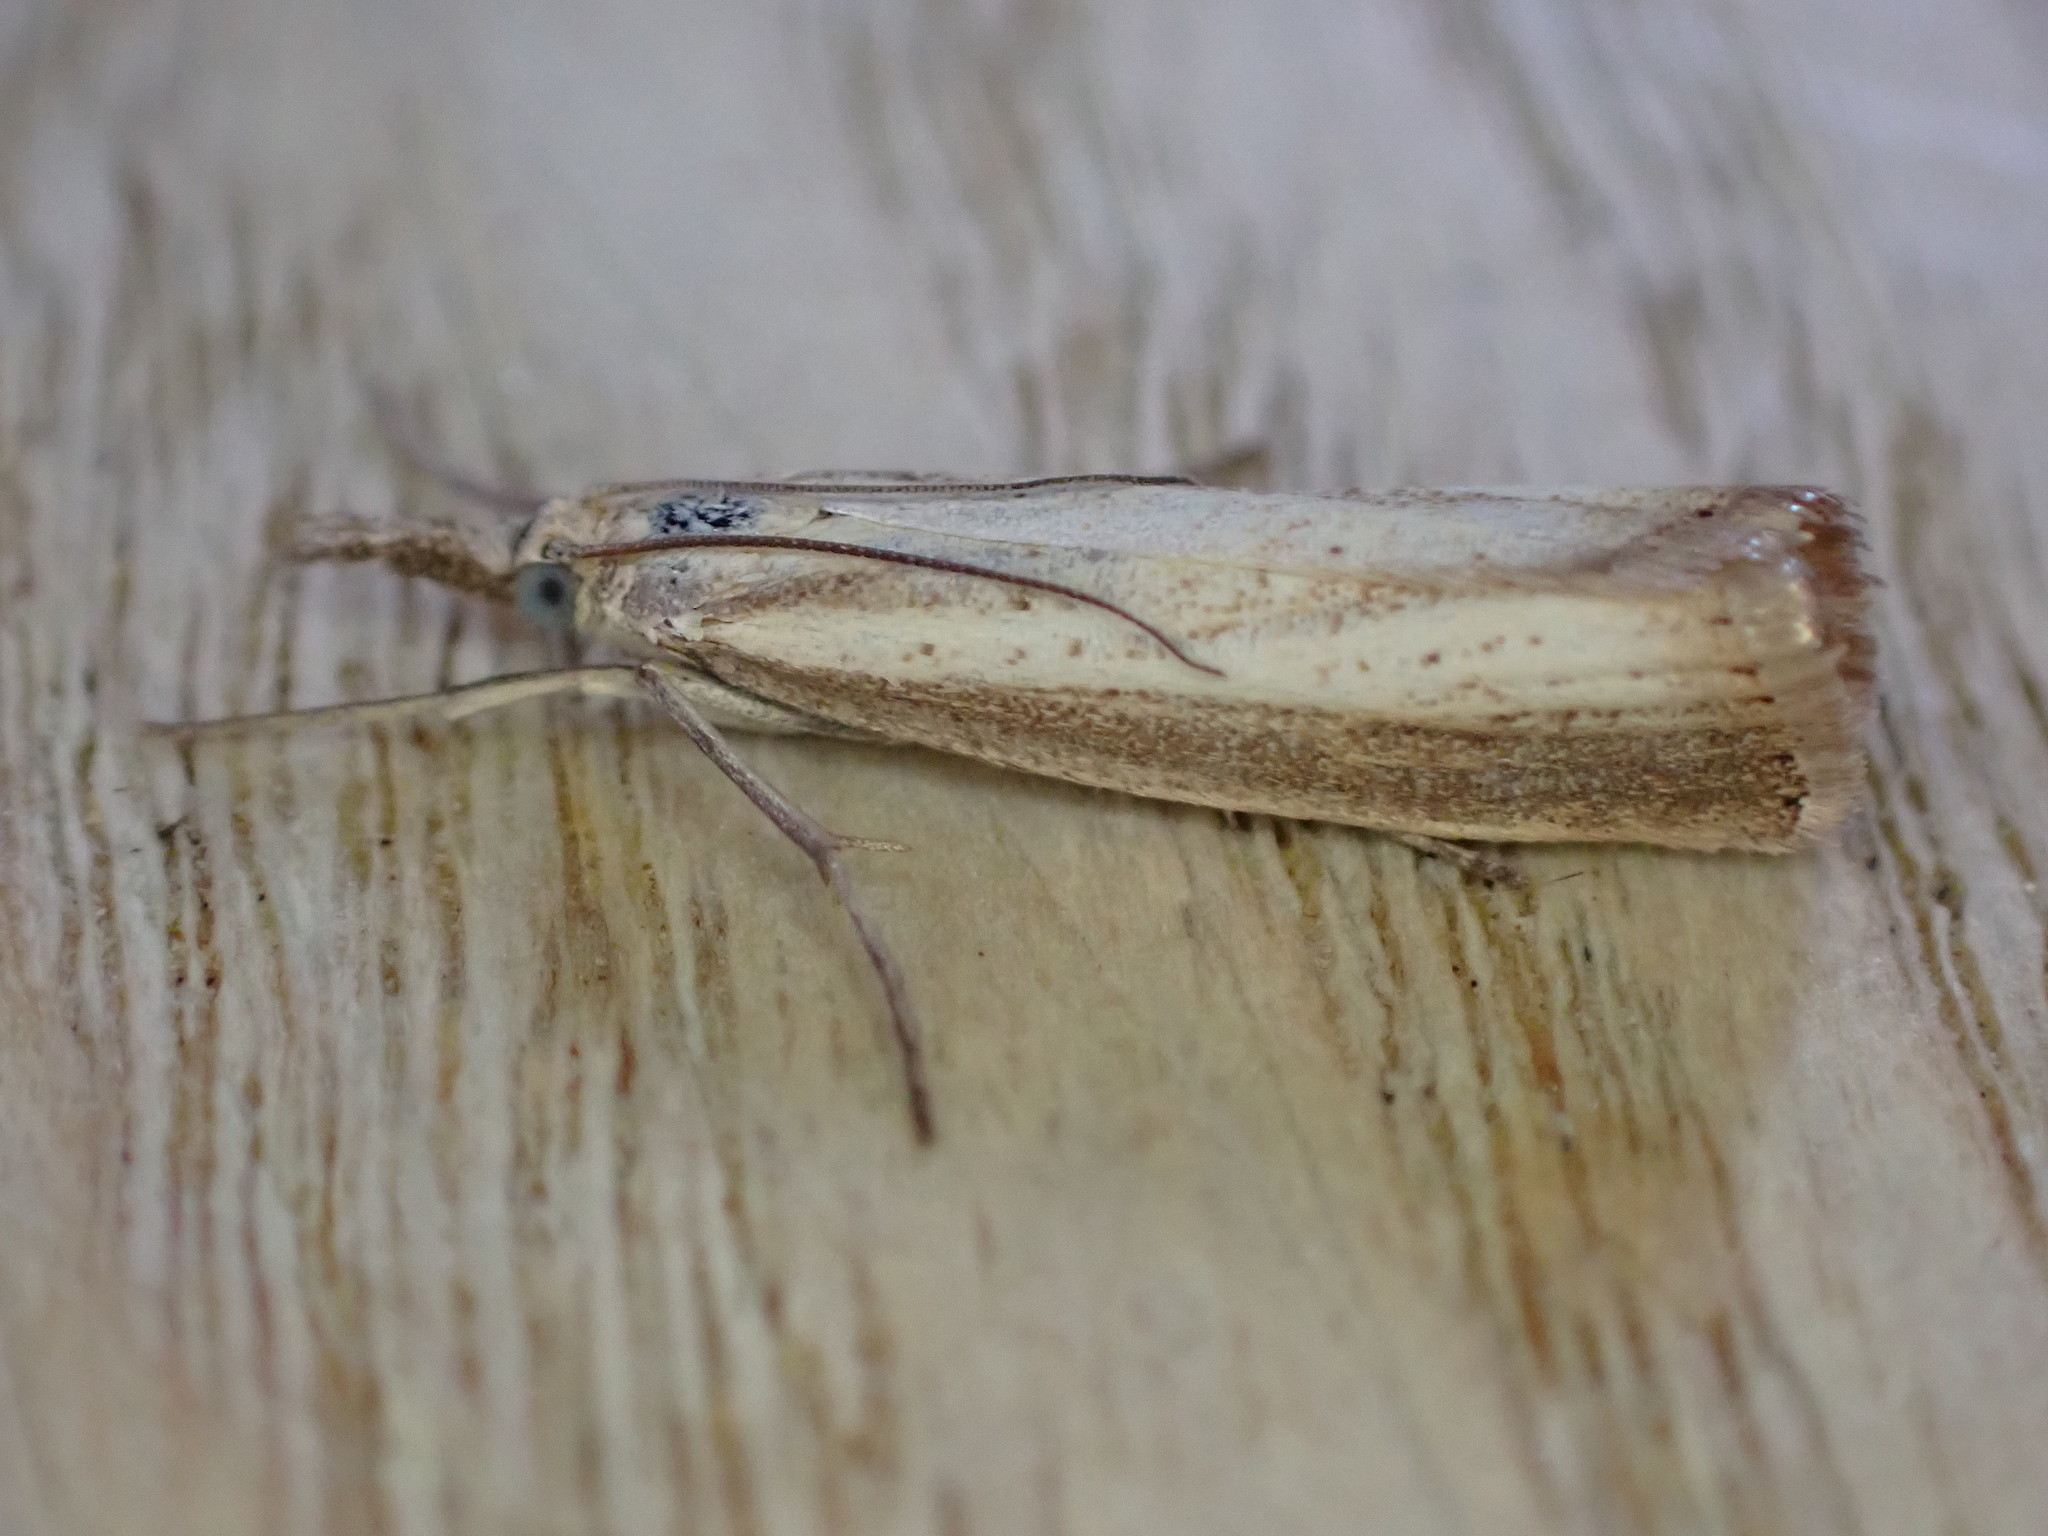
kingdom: Animalia
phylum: Arthropoda
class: Insecta
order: Lepidoptera
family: Crambidae
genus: Agriphila
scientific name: Agriphila straminella
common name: Straw grass-veneer
